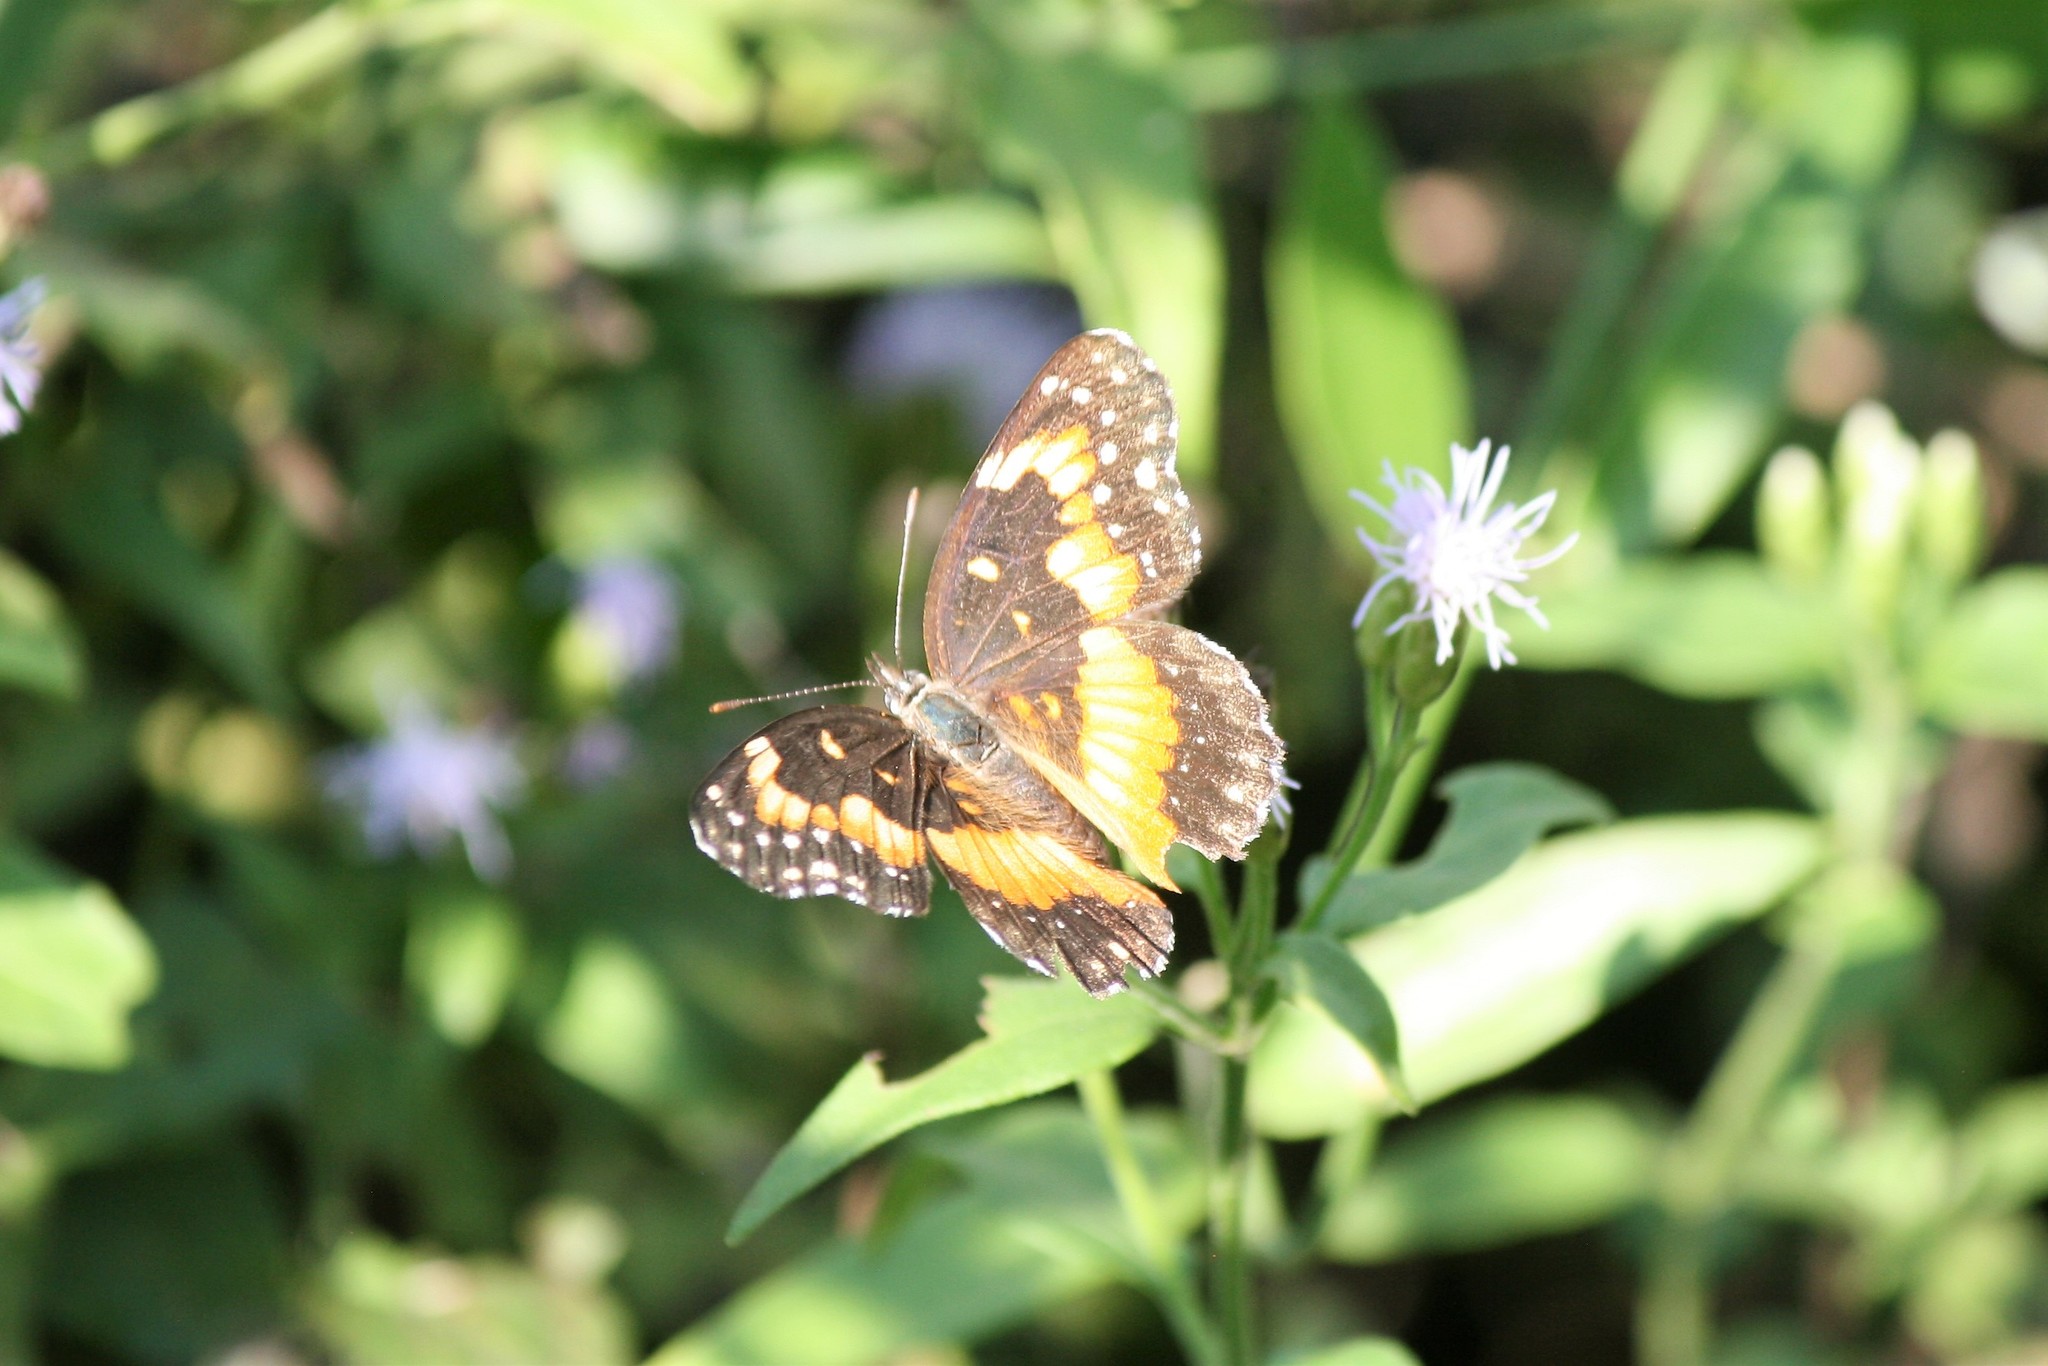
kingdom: Animalia
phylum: Arthropoda
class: Insecta
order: Lepidoptera
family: Nymphalidae
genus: Chlosyne
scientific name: Chlosyne lacinia
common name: Bordered patch
